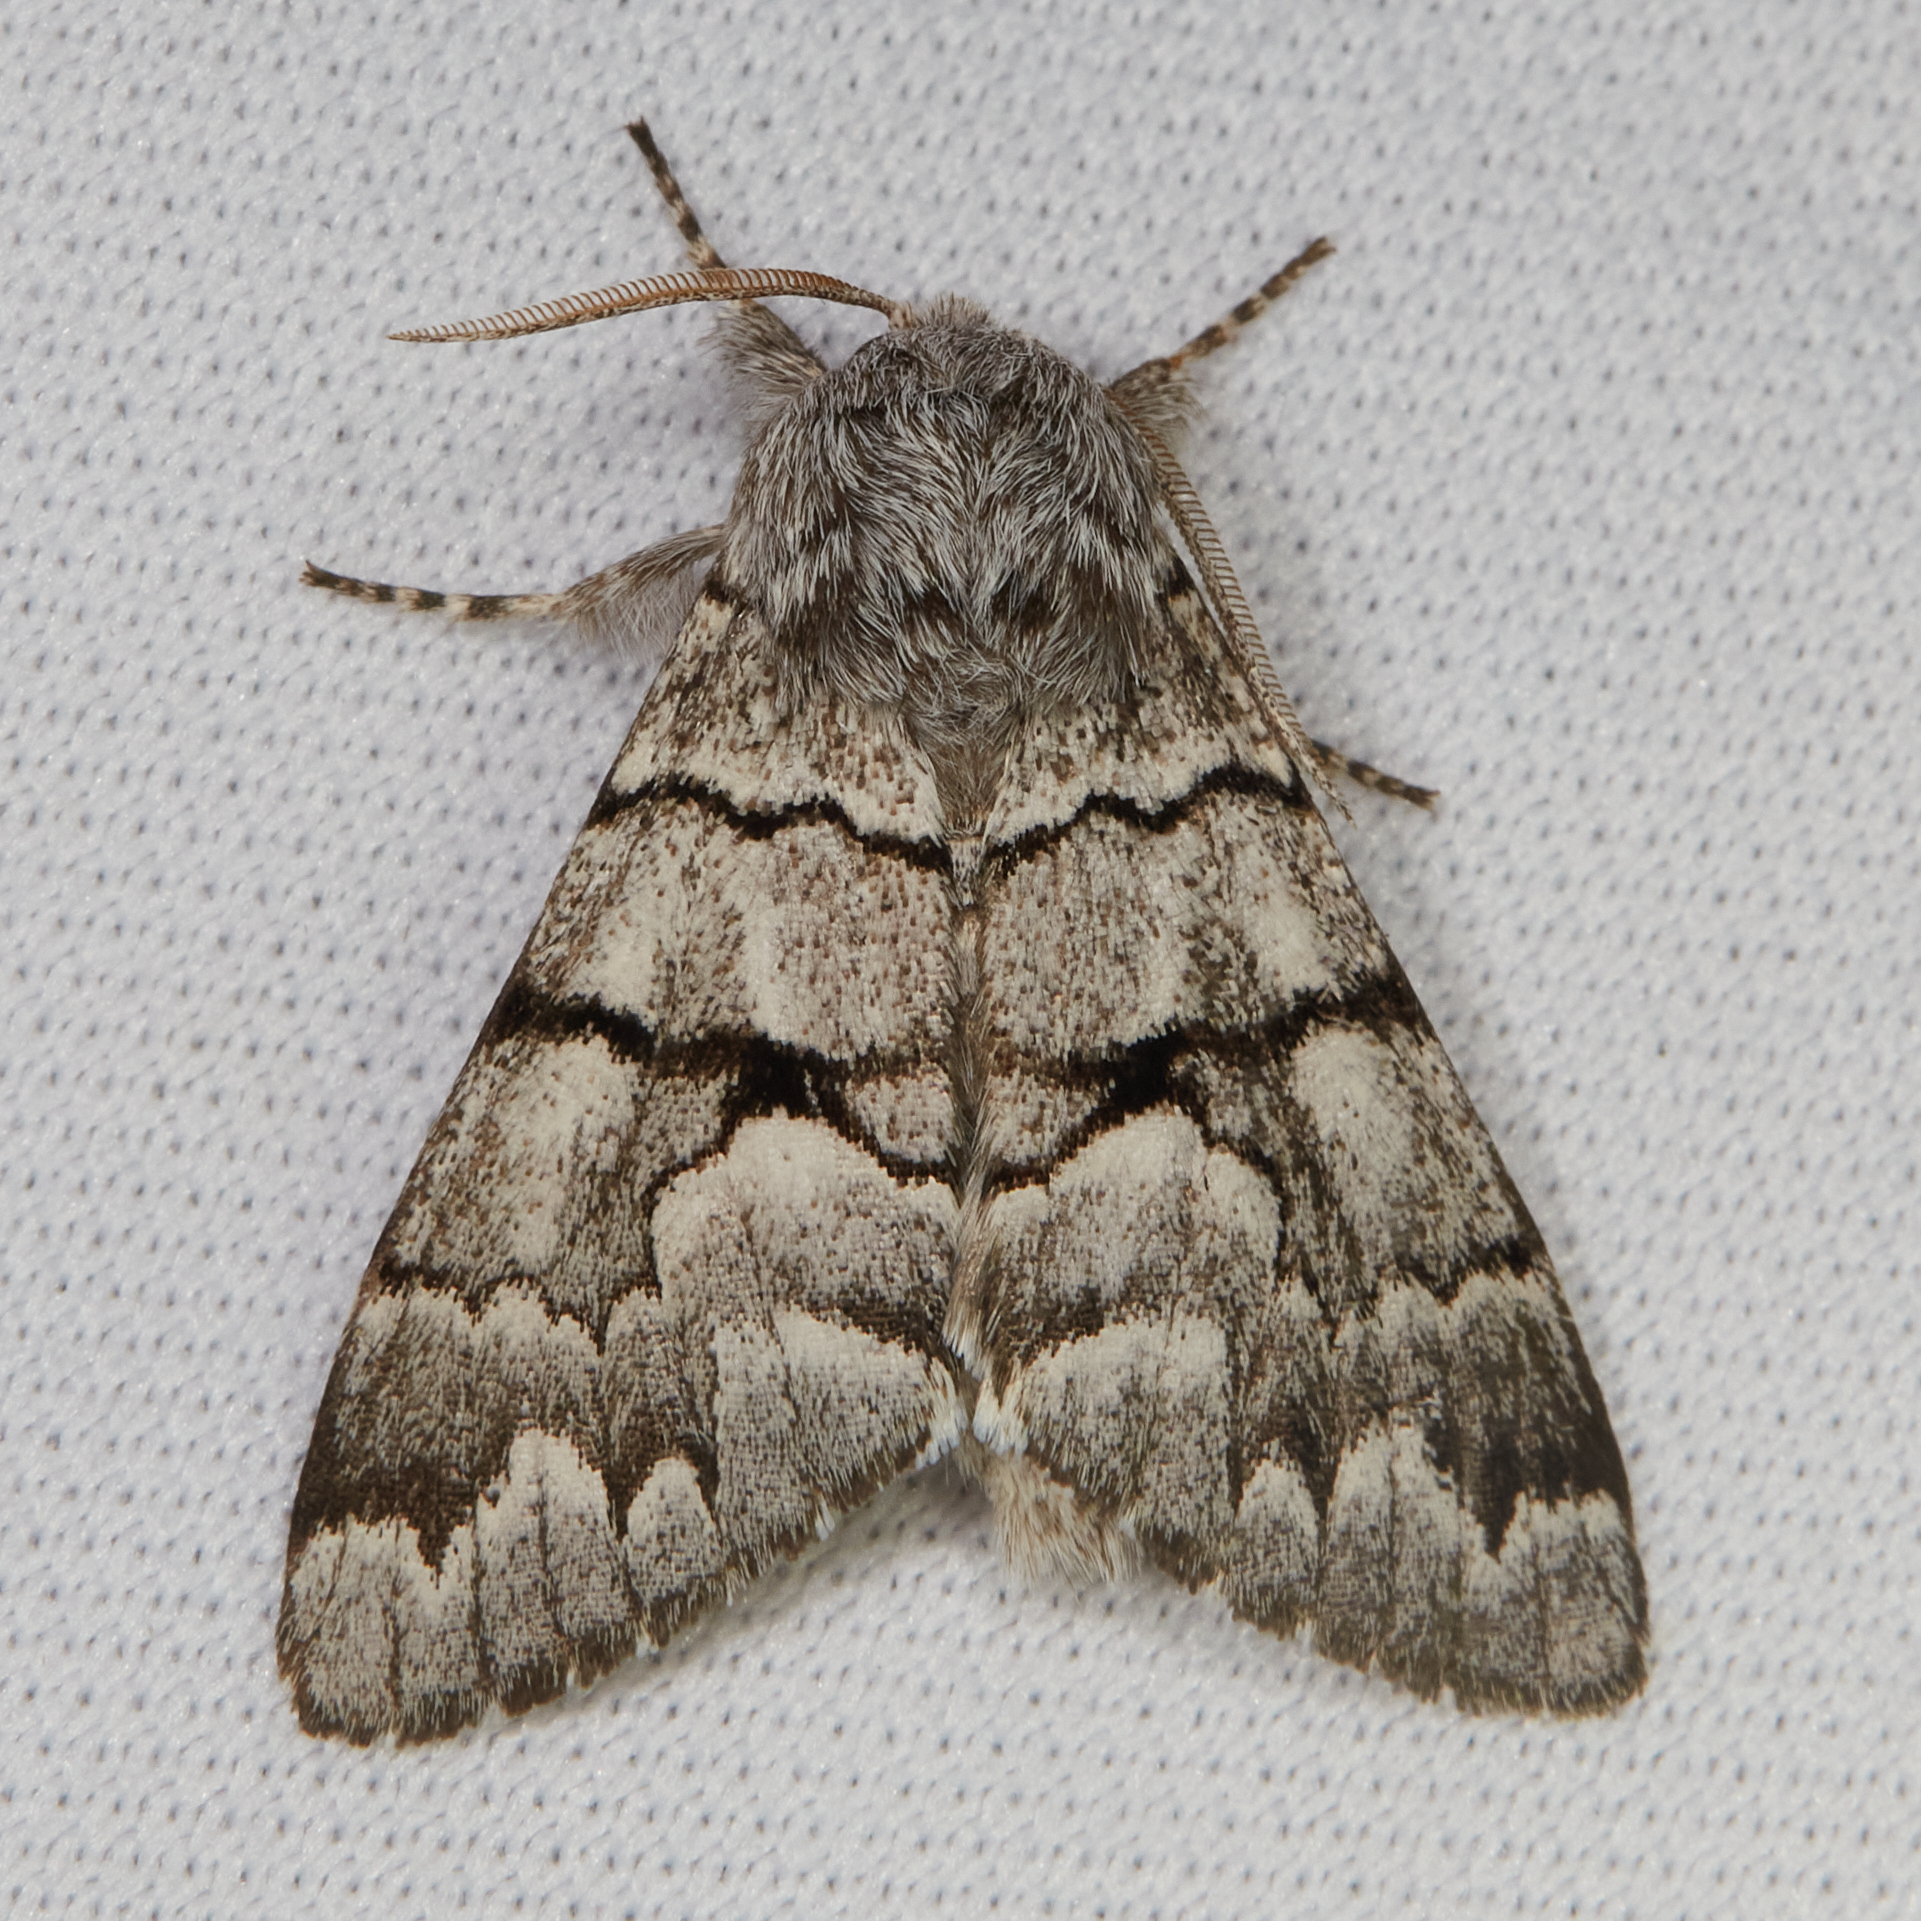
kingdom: Animalia
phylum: Arthropoda
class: Insecta
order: Lepidoptera
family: Noctuidae
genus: Panthea
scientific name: Panthea furcilla
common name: Eastern panthea moth
